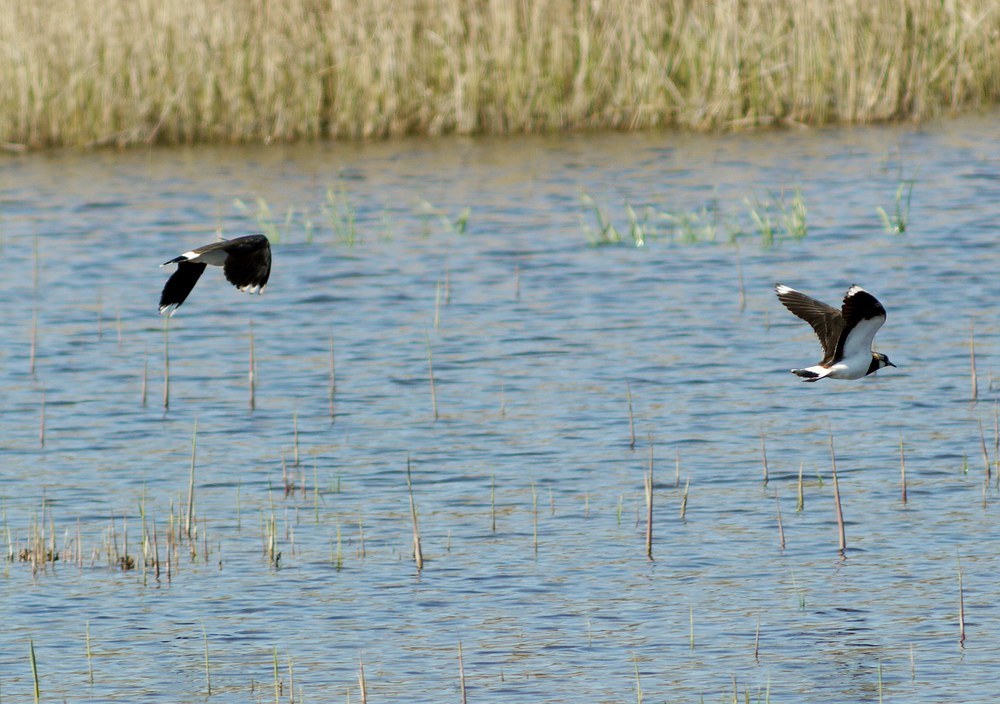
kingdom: Animalia
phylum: Chordata
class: Aves
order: Charadriiformes
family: Charadriidae
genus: Vanellus
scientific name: Vanellus vanellus
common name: Northern lapwing
